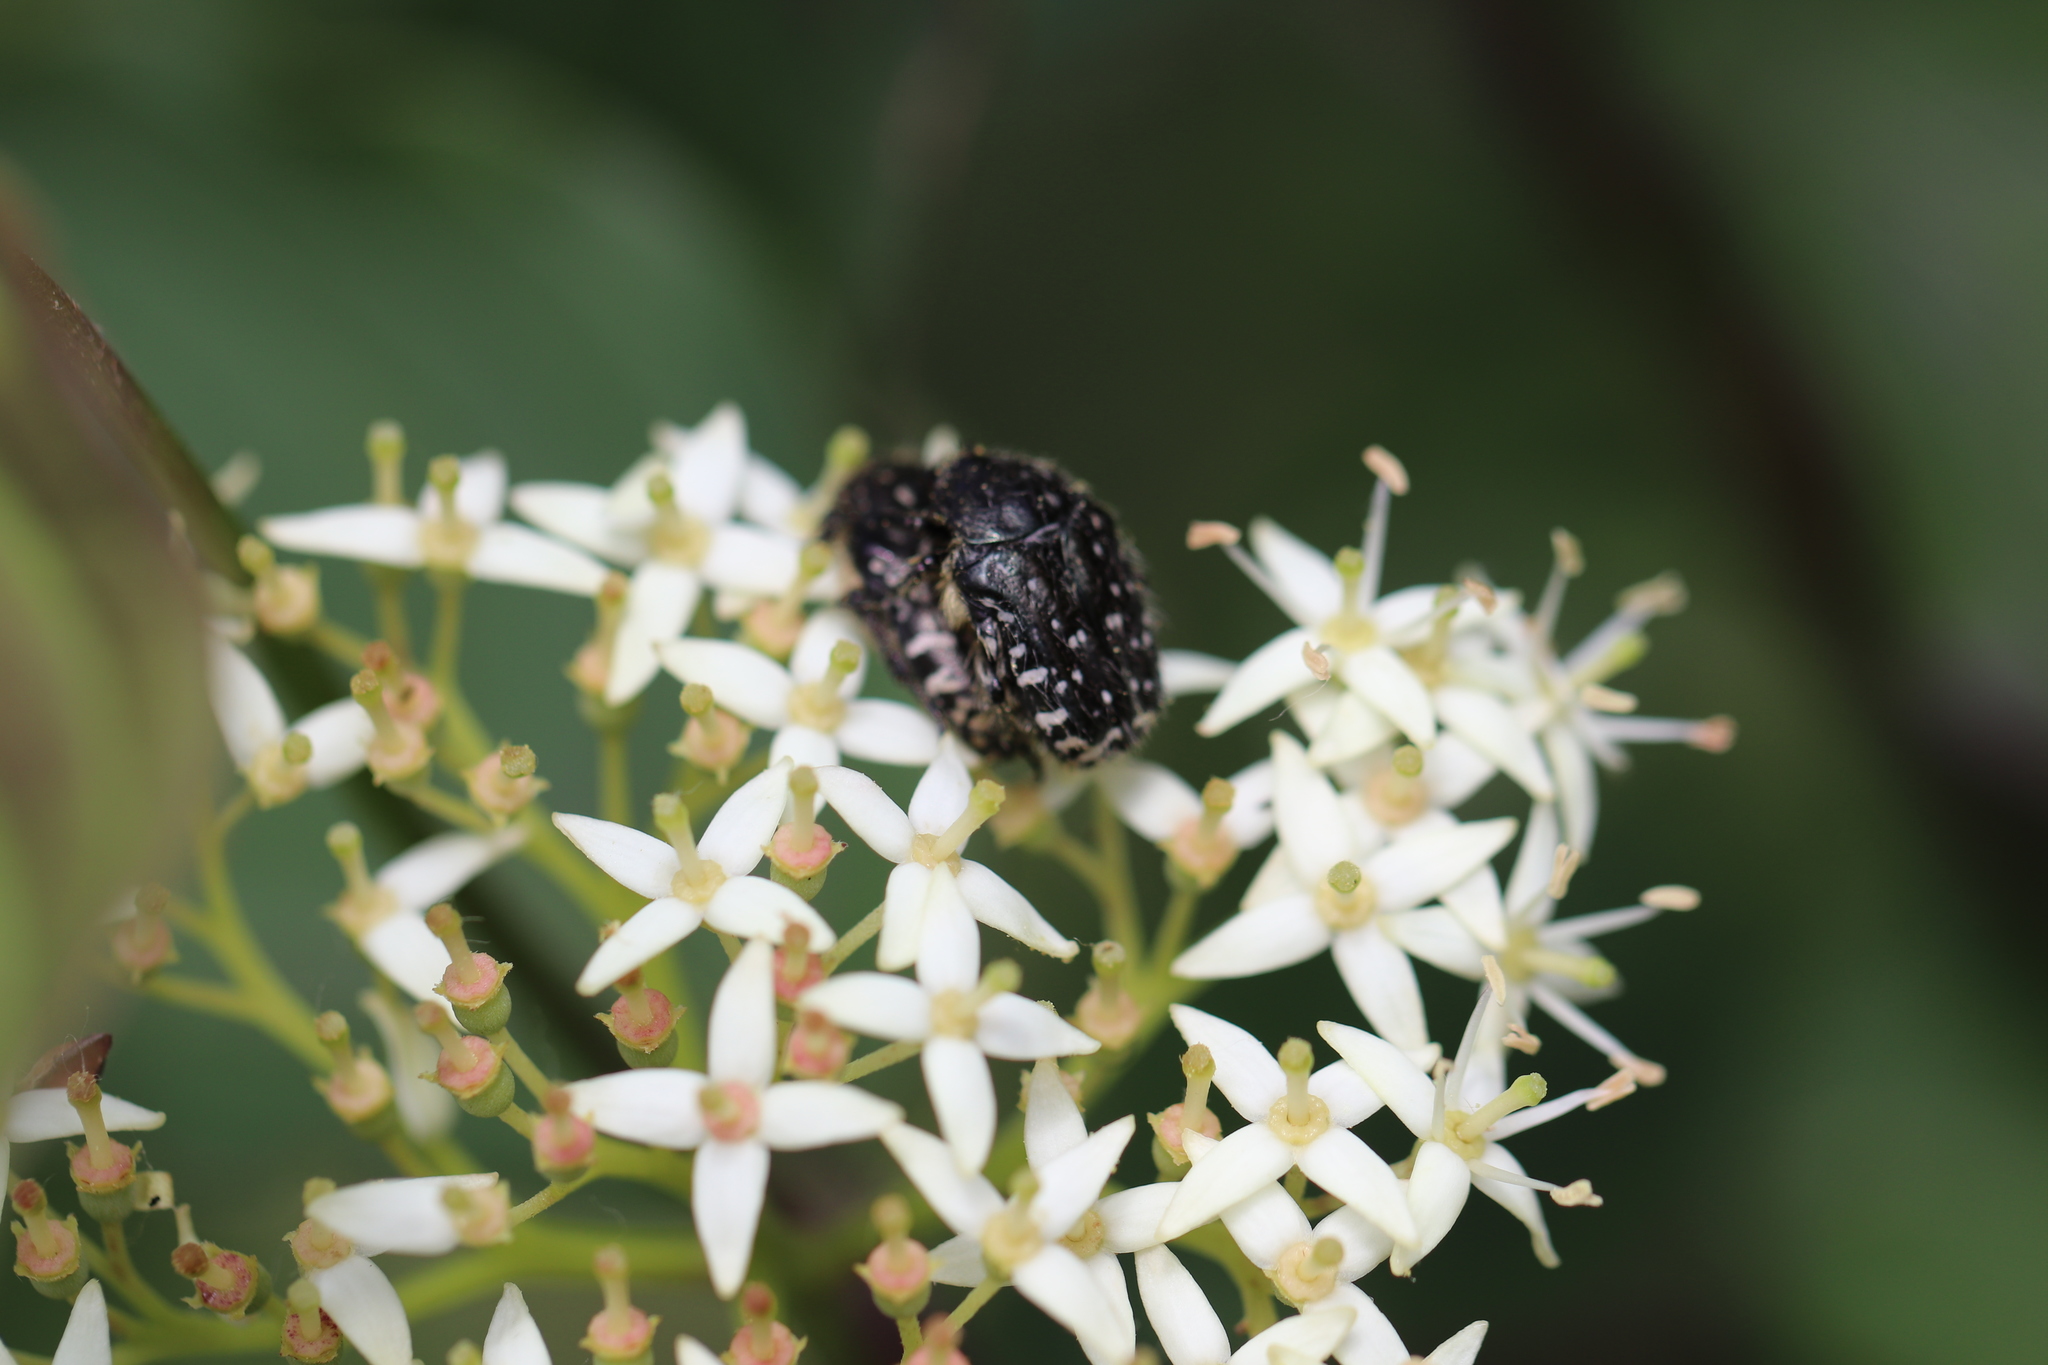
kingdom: Animalia
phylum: Arthropoda
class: Insecta
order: Coleoptera
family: Scarabaeidae
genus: Oxythyrea
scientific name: Oxythyrea funesta
